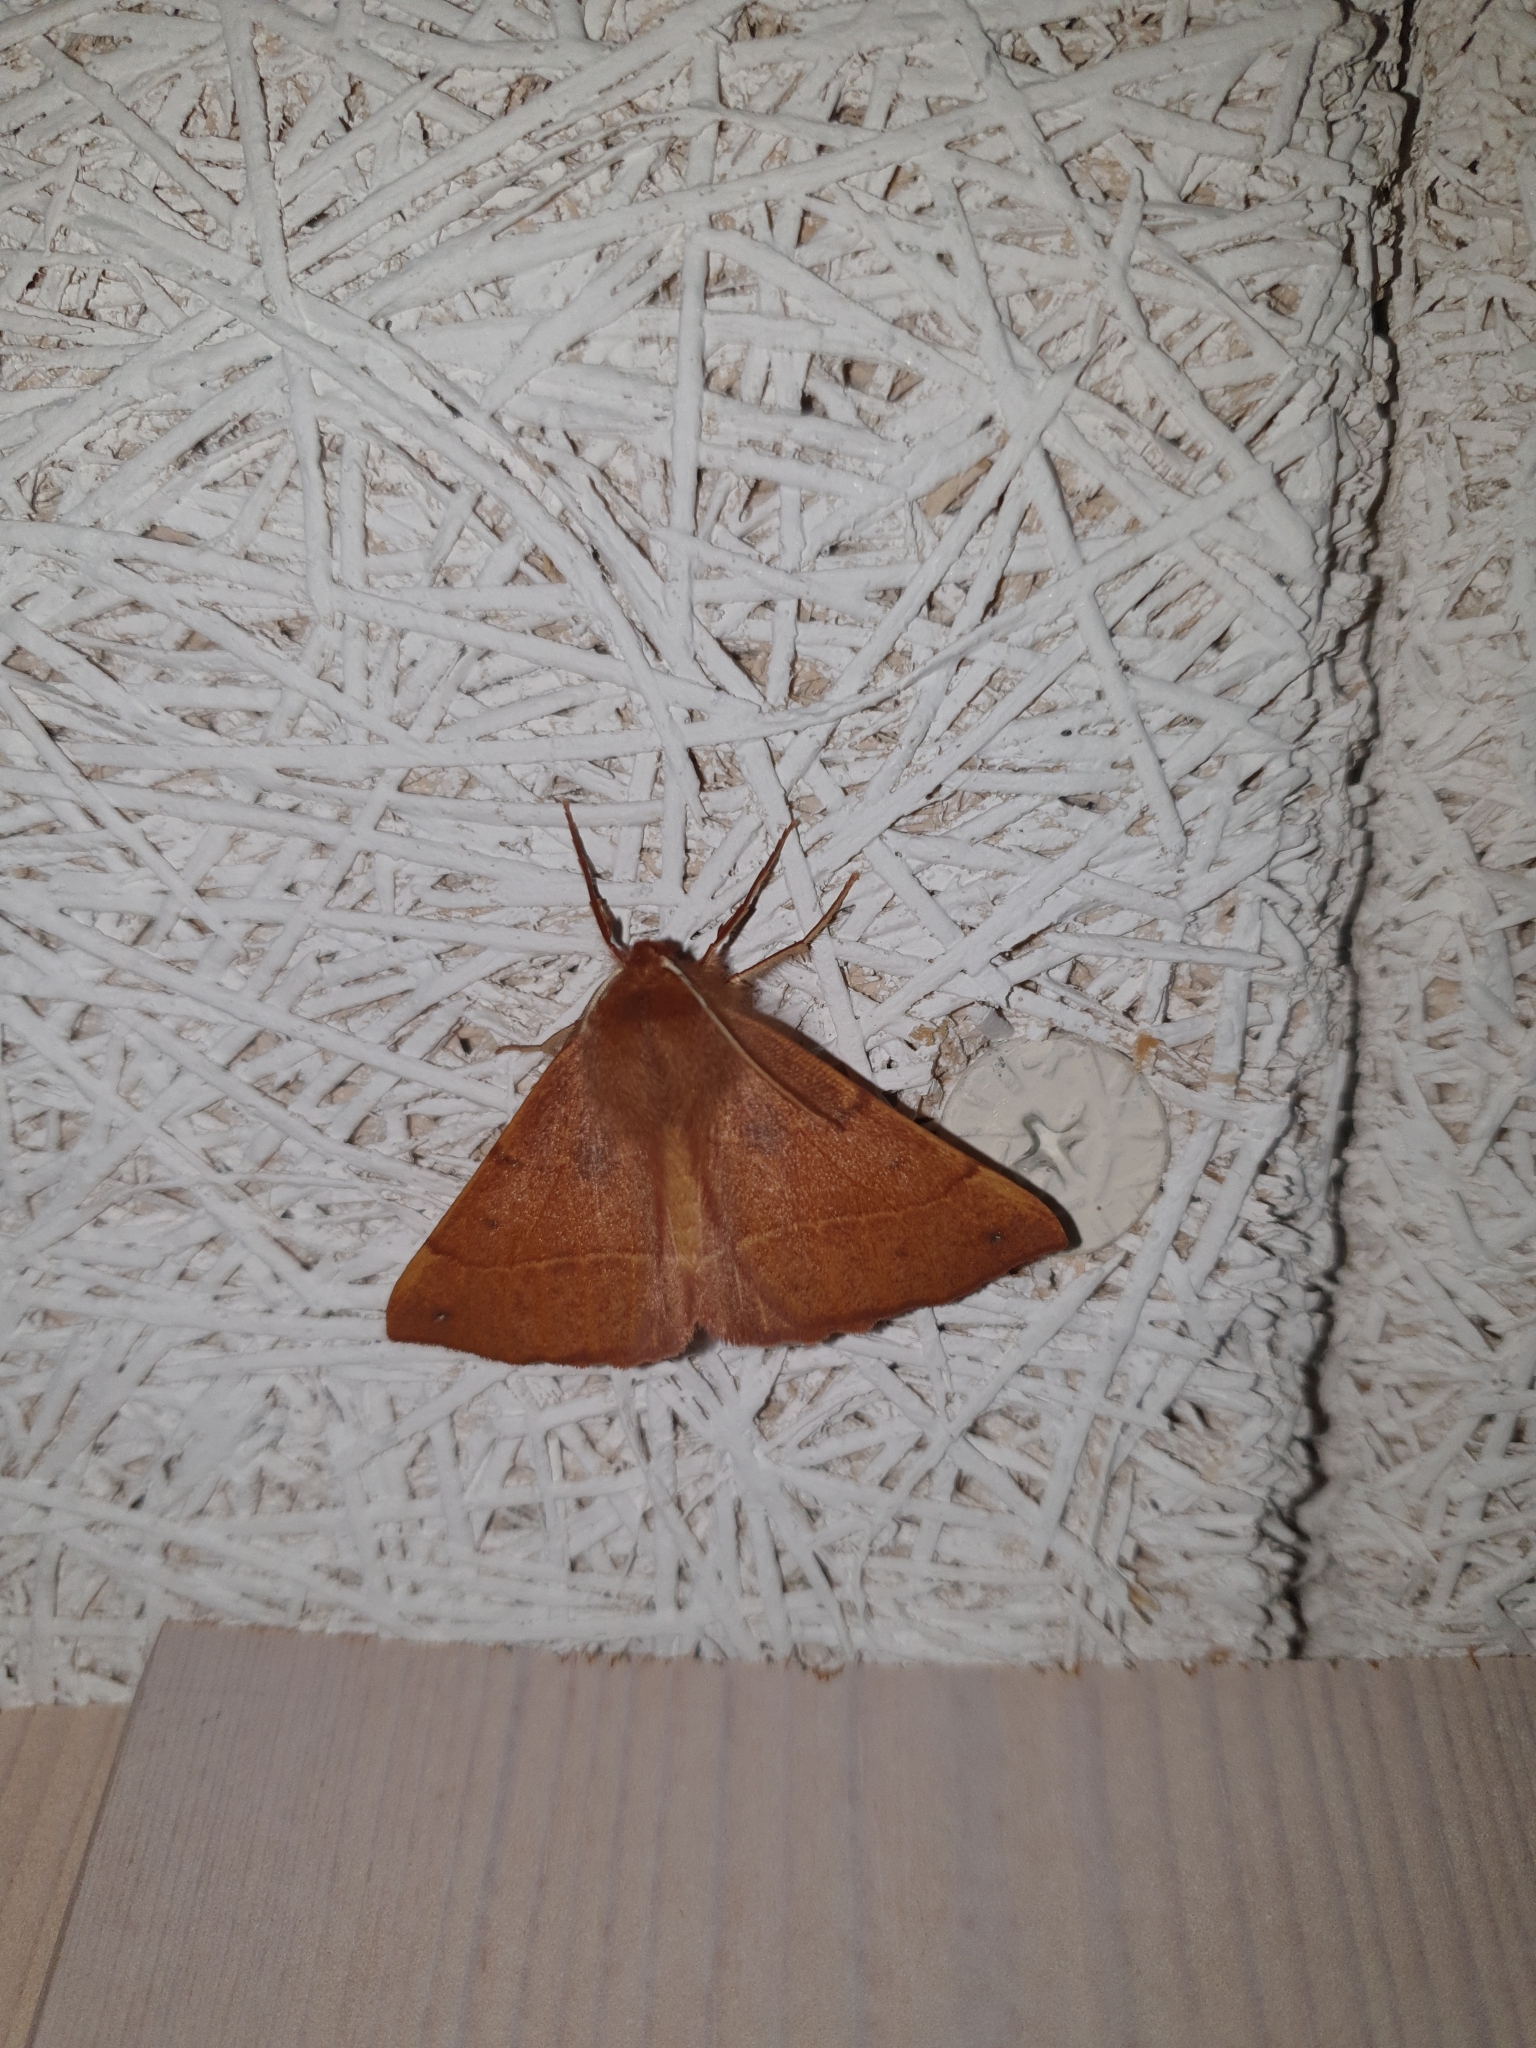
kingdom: Animalia
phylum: Arthropoda
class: Insecta
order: Lepidoptera
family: Geometridae
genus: Colotois
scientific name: Colotois pennaria
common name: Feathered thorn
